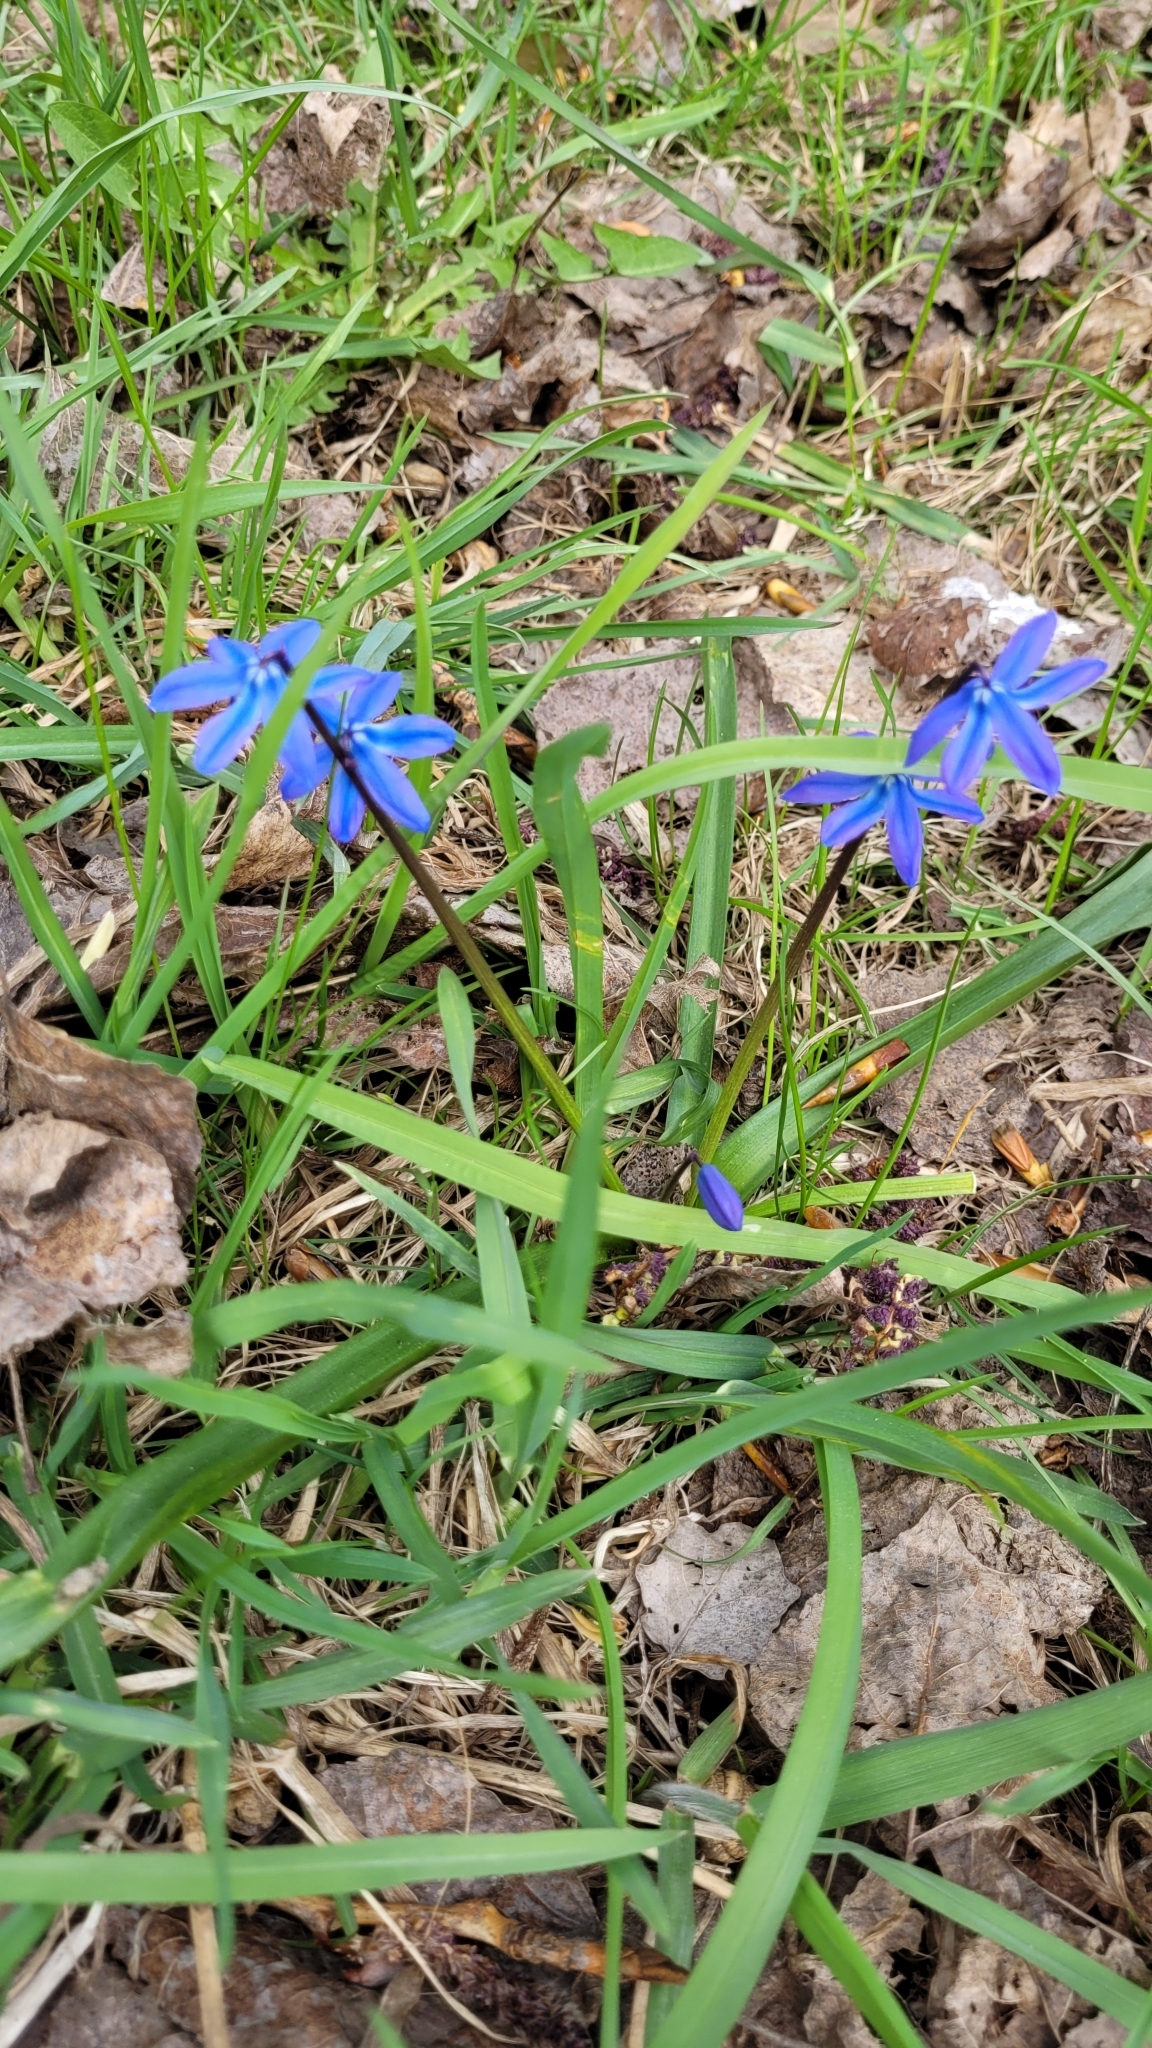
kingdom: Plantae
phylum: Tracheophyta
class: Liliopsida
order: Asparagales
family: Asparagaceae
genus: Scilla
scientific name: Scilla siberica
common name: Siberian squill
